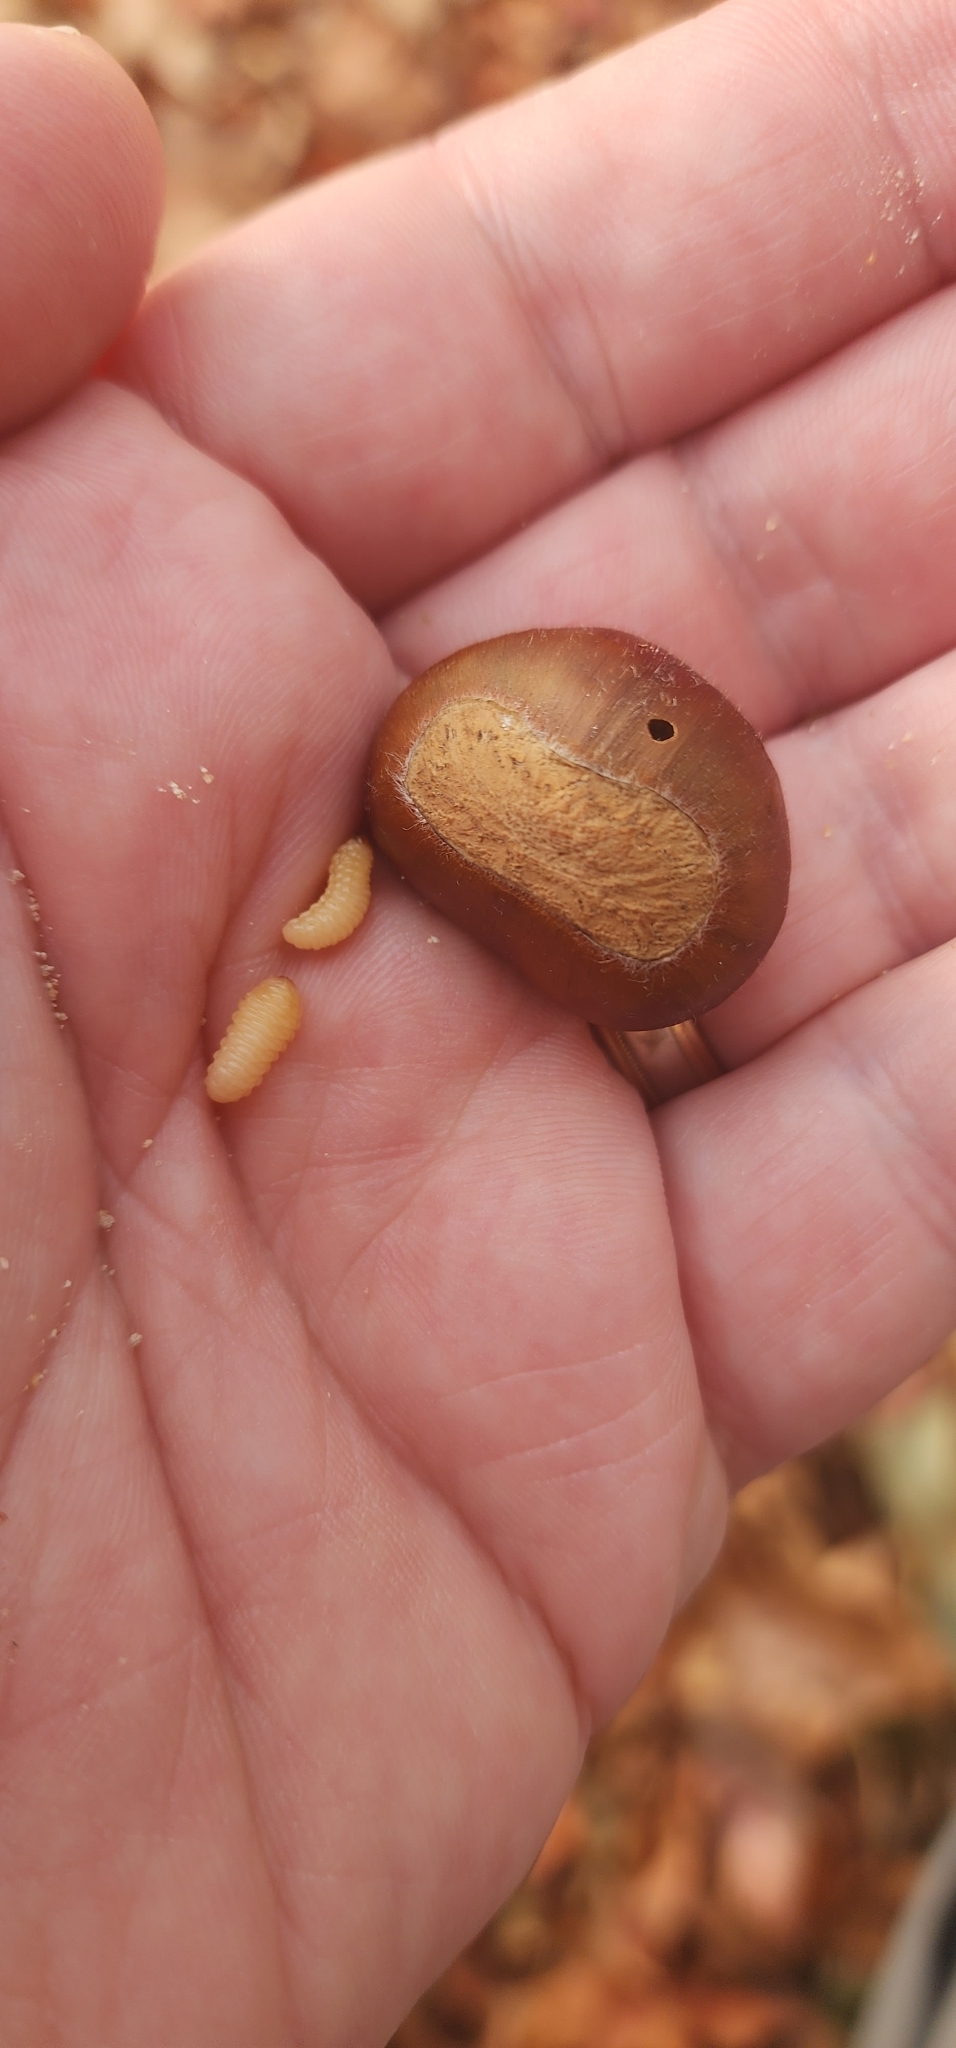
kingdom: Animalia
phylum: Arthropoda
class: Insecta
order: Coleoptera
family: Curculionidae
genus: Curculio
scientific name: Curculio sayi
